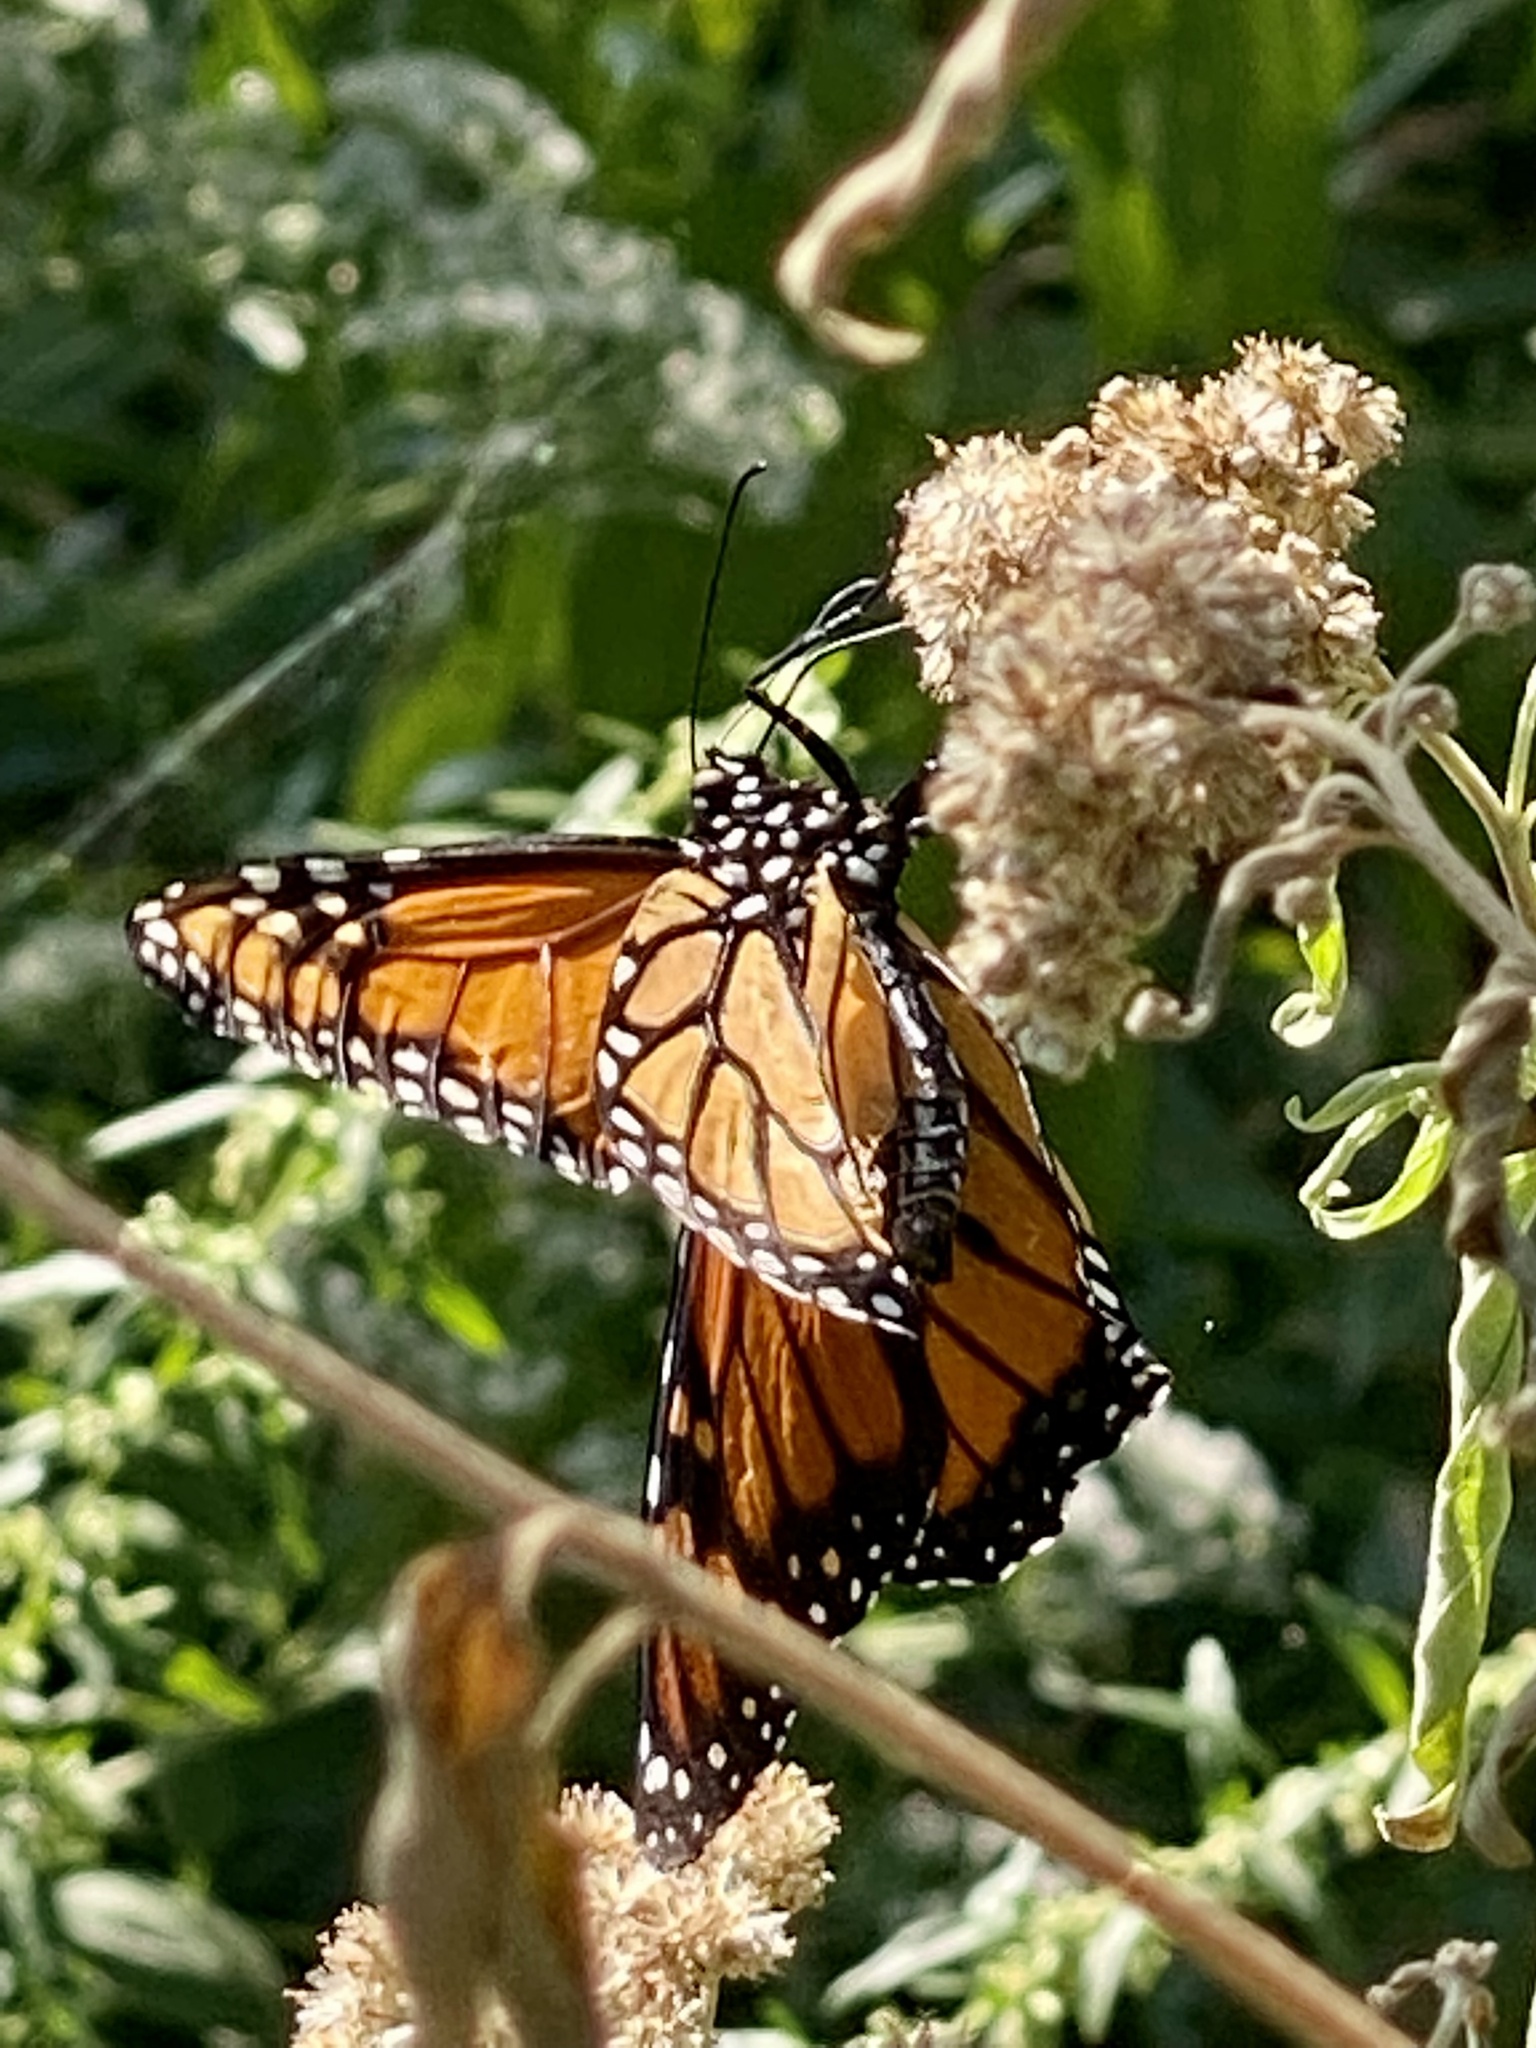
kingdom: Animalia
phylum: Arthropoda
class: Insecta
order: Lepidoptera
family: Nymphalidae
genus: Danaus
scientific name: Danaus plexippus
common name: Monarch
